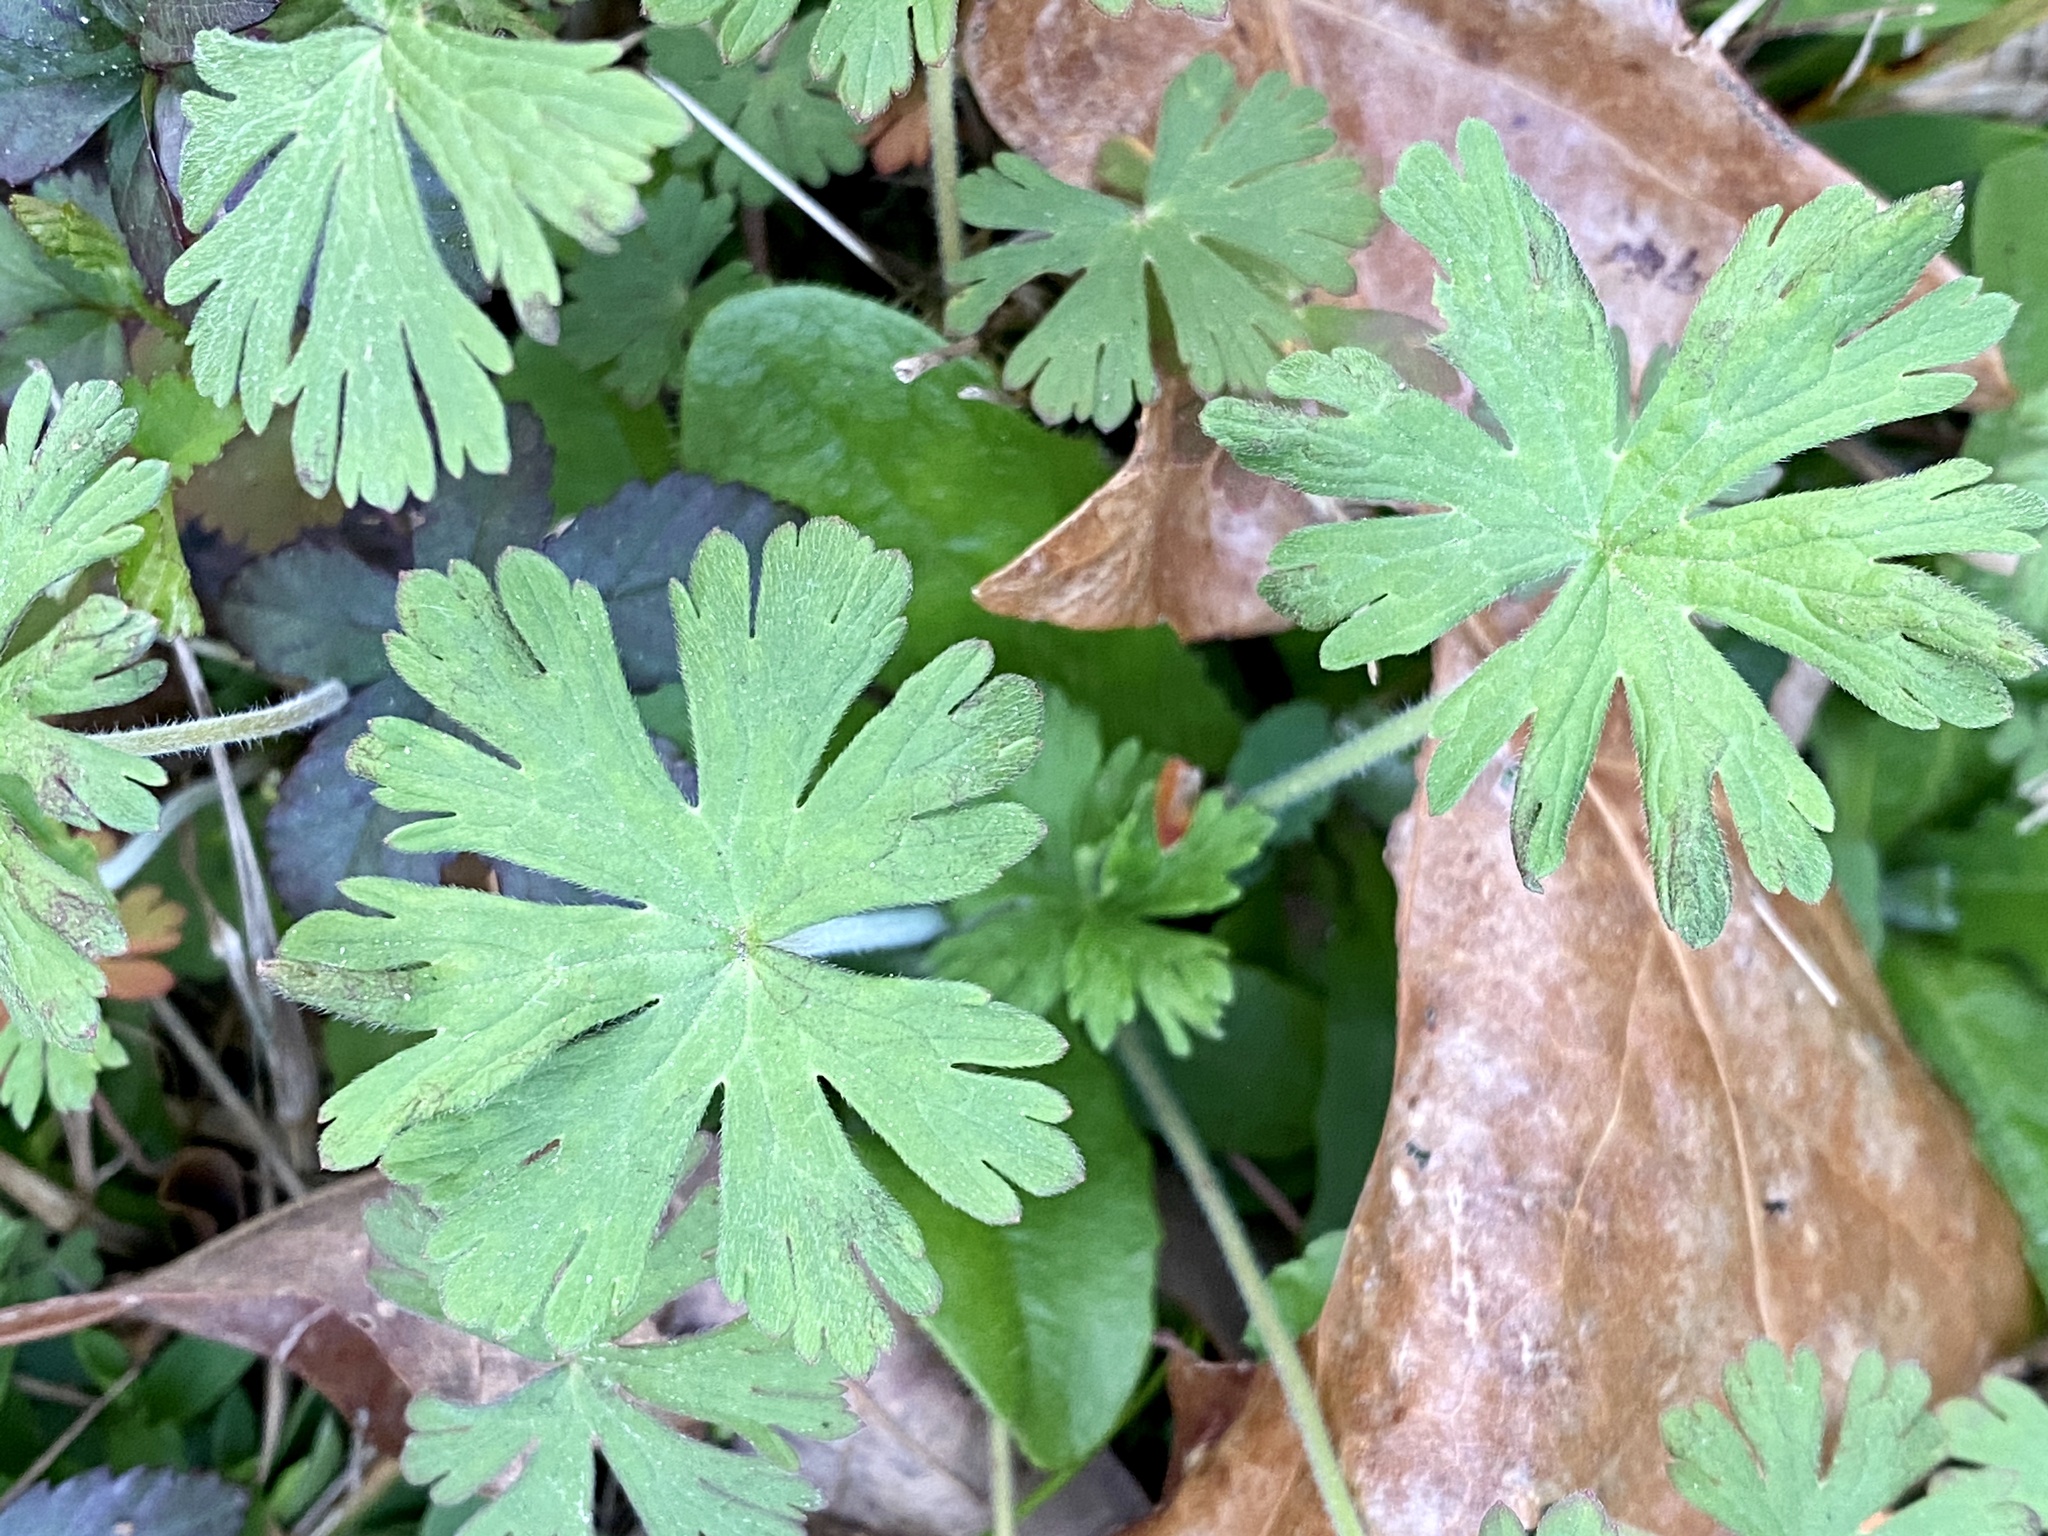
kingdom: Plantae
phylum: Tracheophyta
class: Magnoliopsida
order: Geraniales
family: Geraniaceae
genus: Geranium
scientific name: Geranium carolinianum
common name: Carolina crane's-bill
